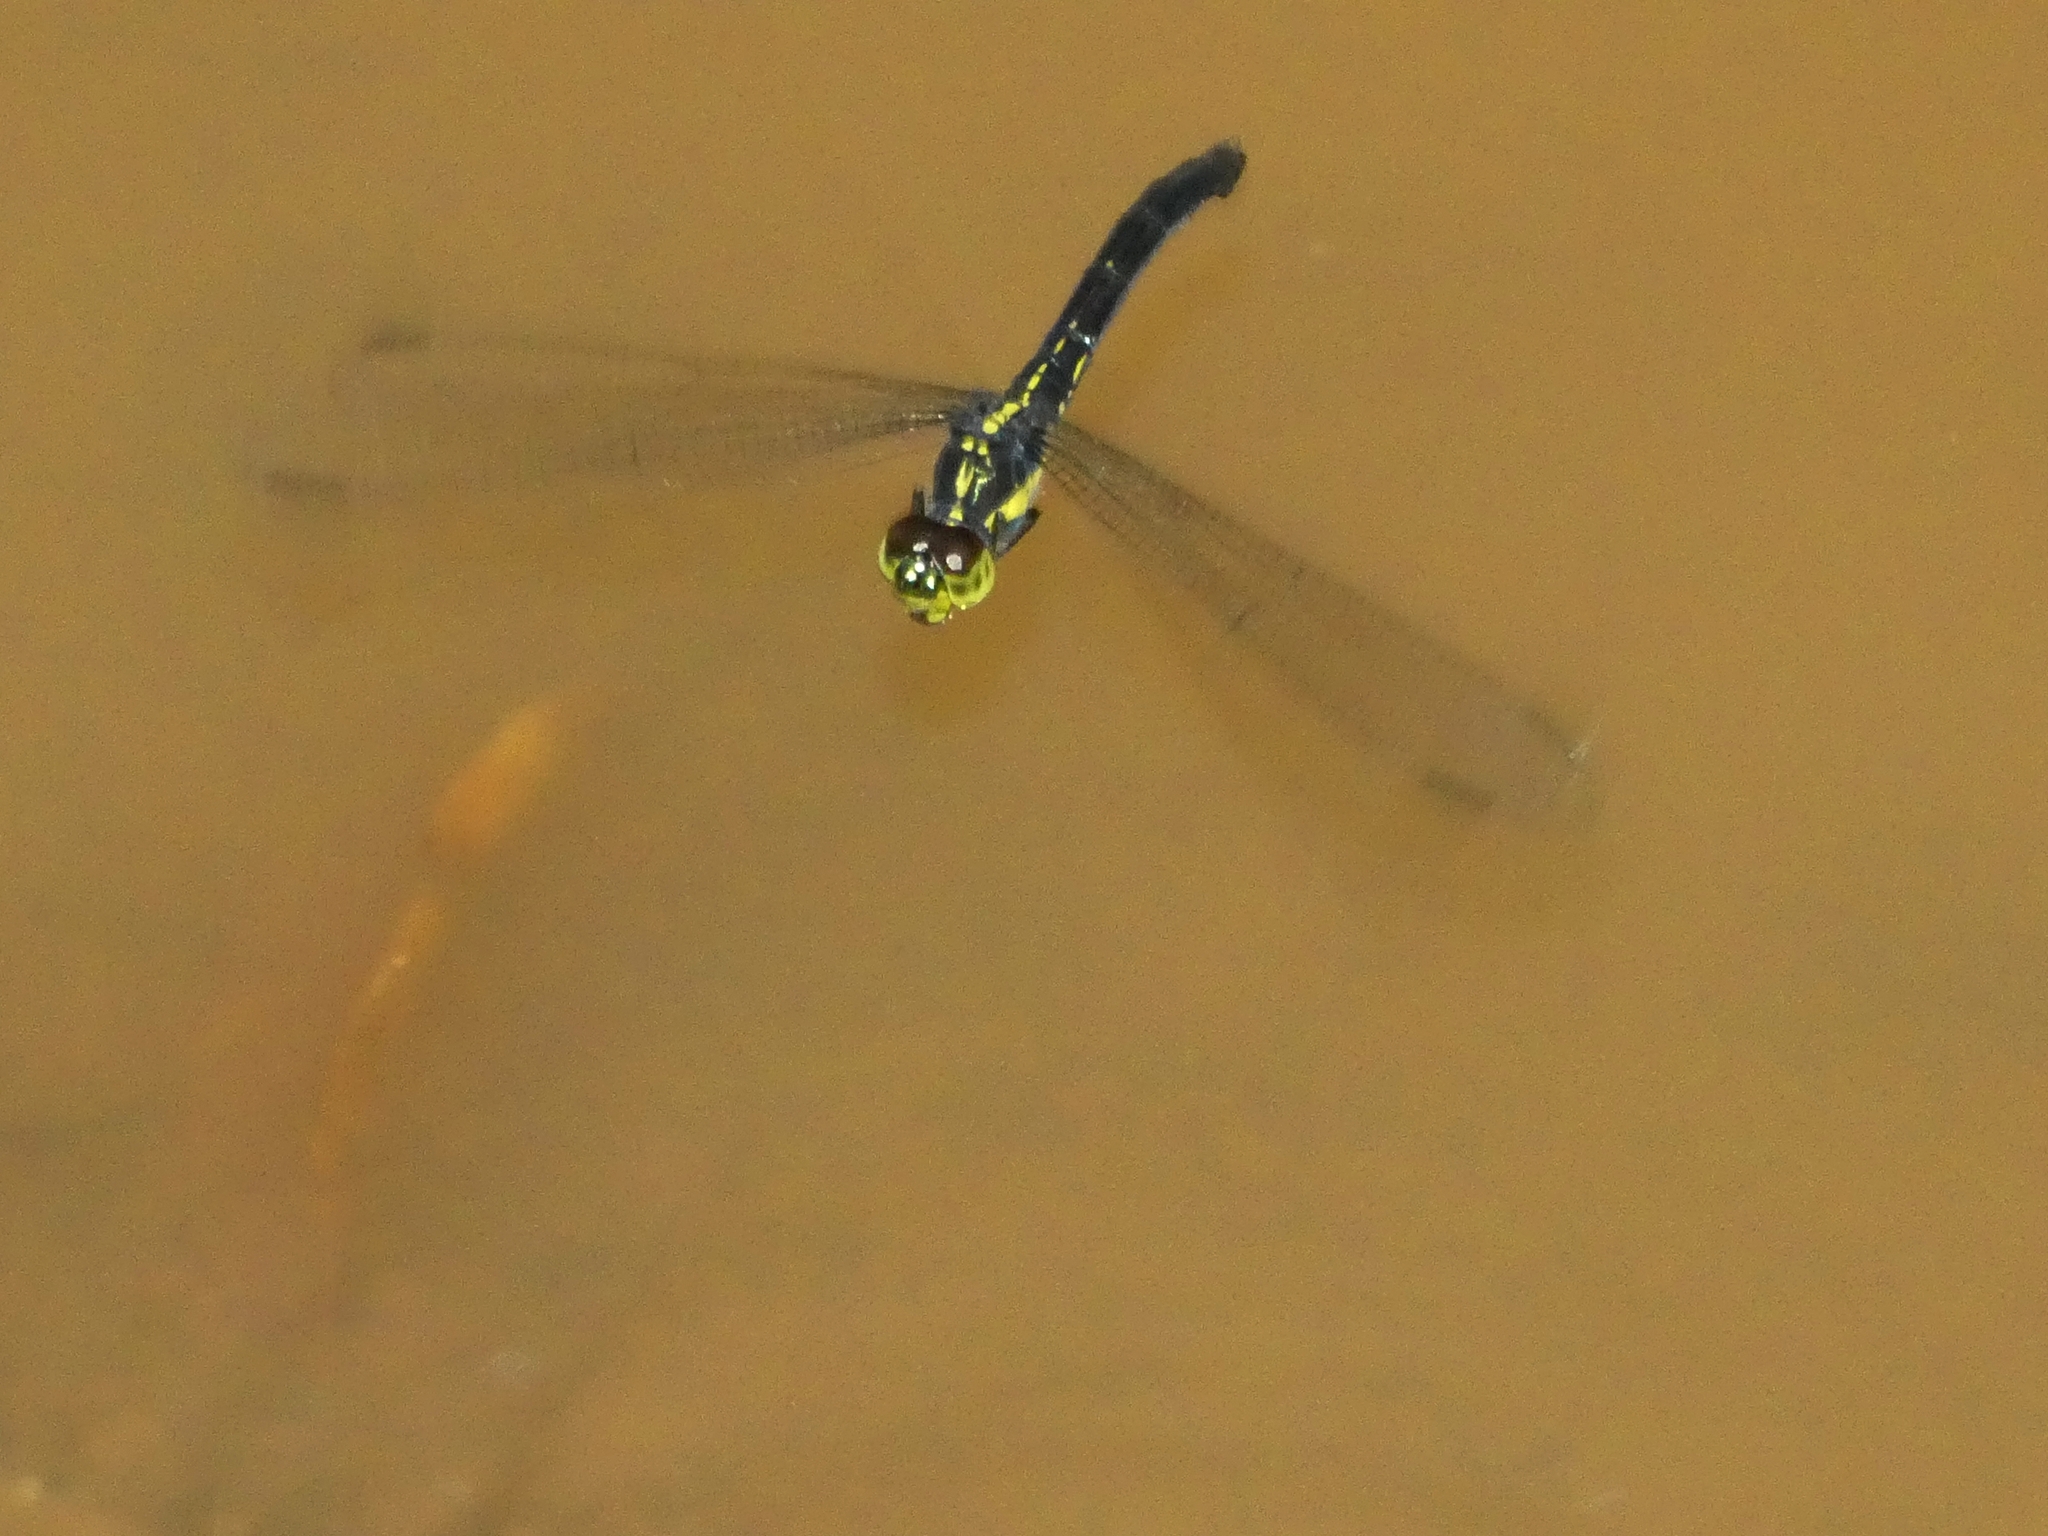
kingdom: Animalia
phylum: Arthropoda
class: Insecta
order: Odonata
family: Libellulidae
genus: Agrionoptera
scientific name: Agrionoptera longitudinalis
